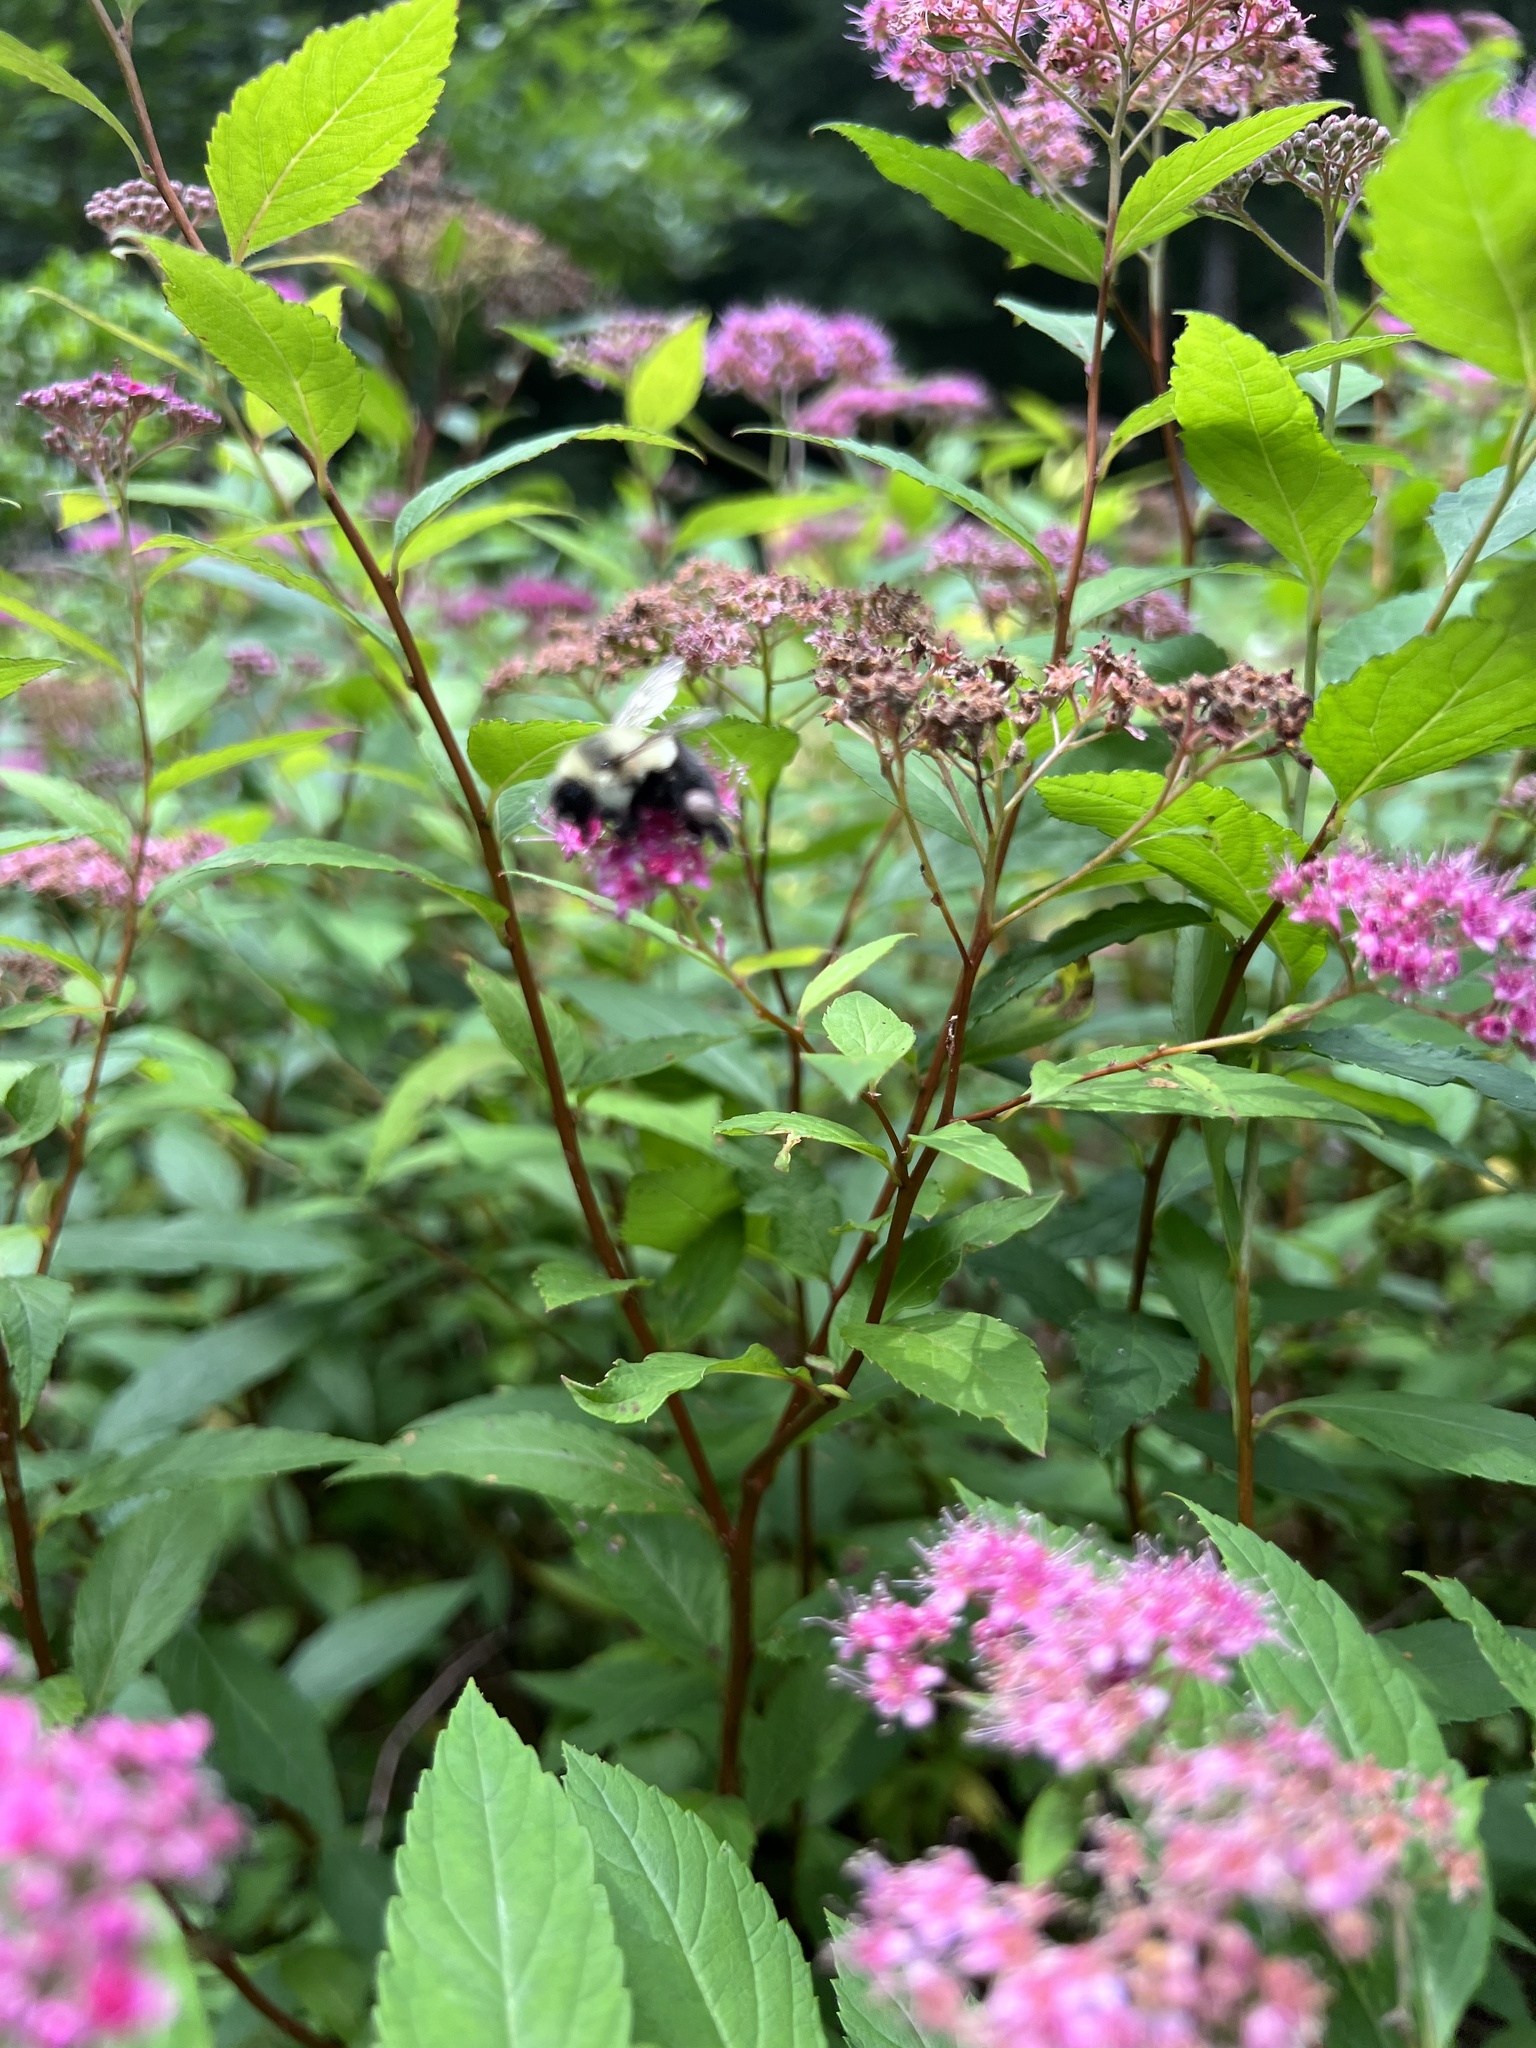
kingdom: Animalia
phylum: Arthropoda
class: Insecta
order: Hymenoptera
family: Apidae
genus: Bombus
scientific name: Bombus impatiens
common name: Common eastern bumble bee
